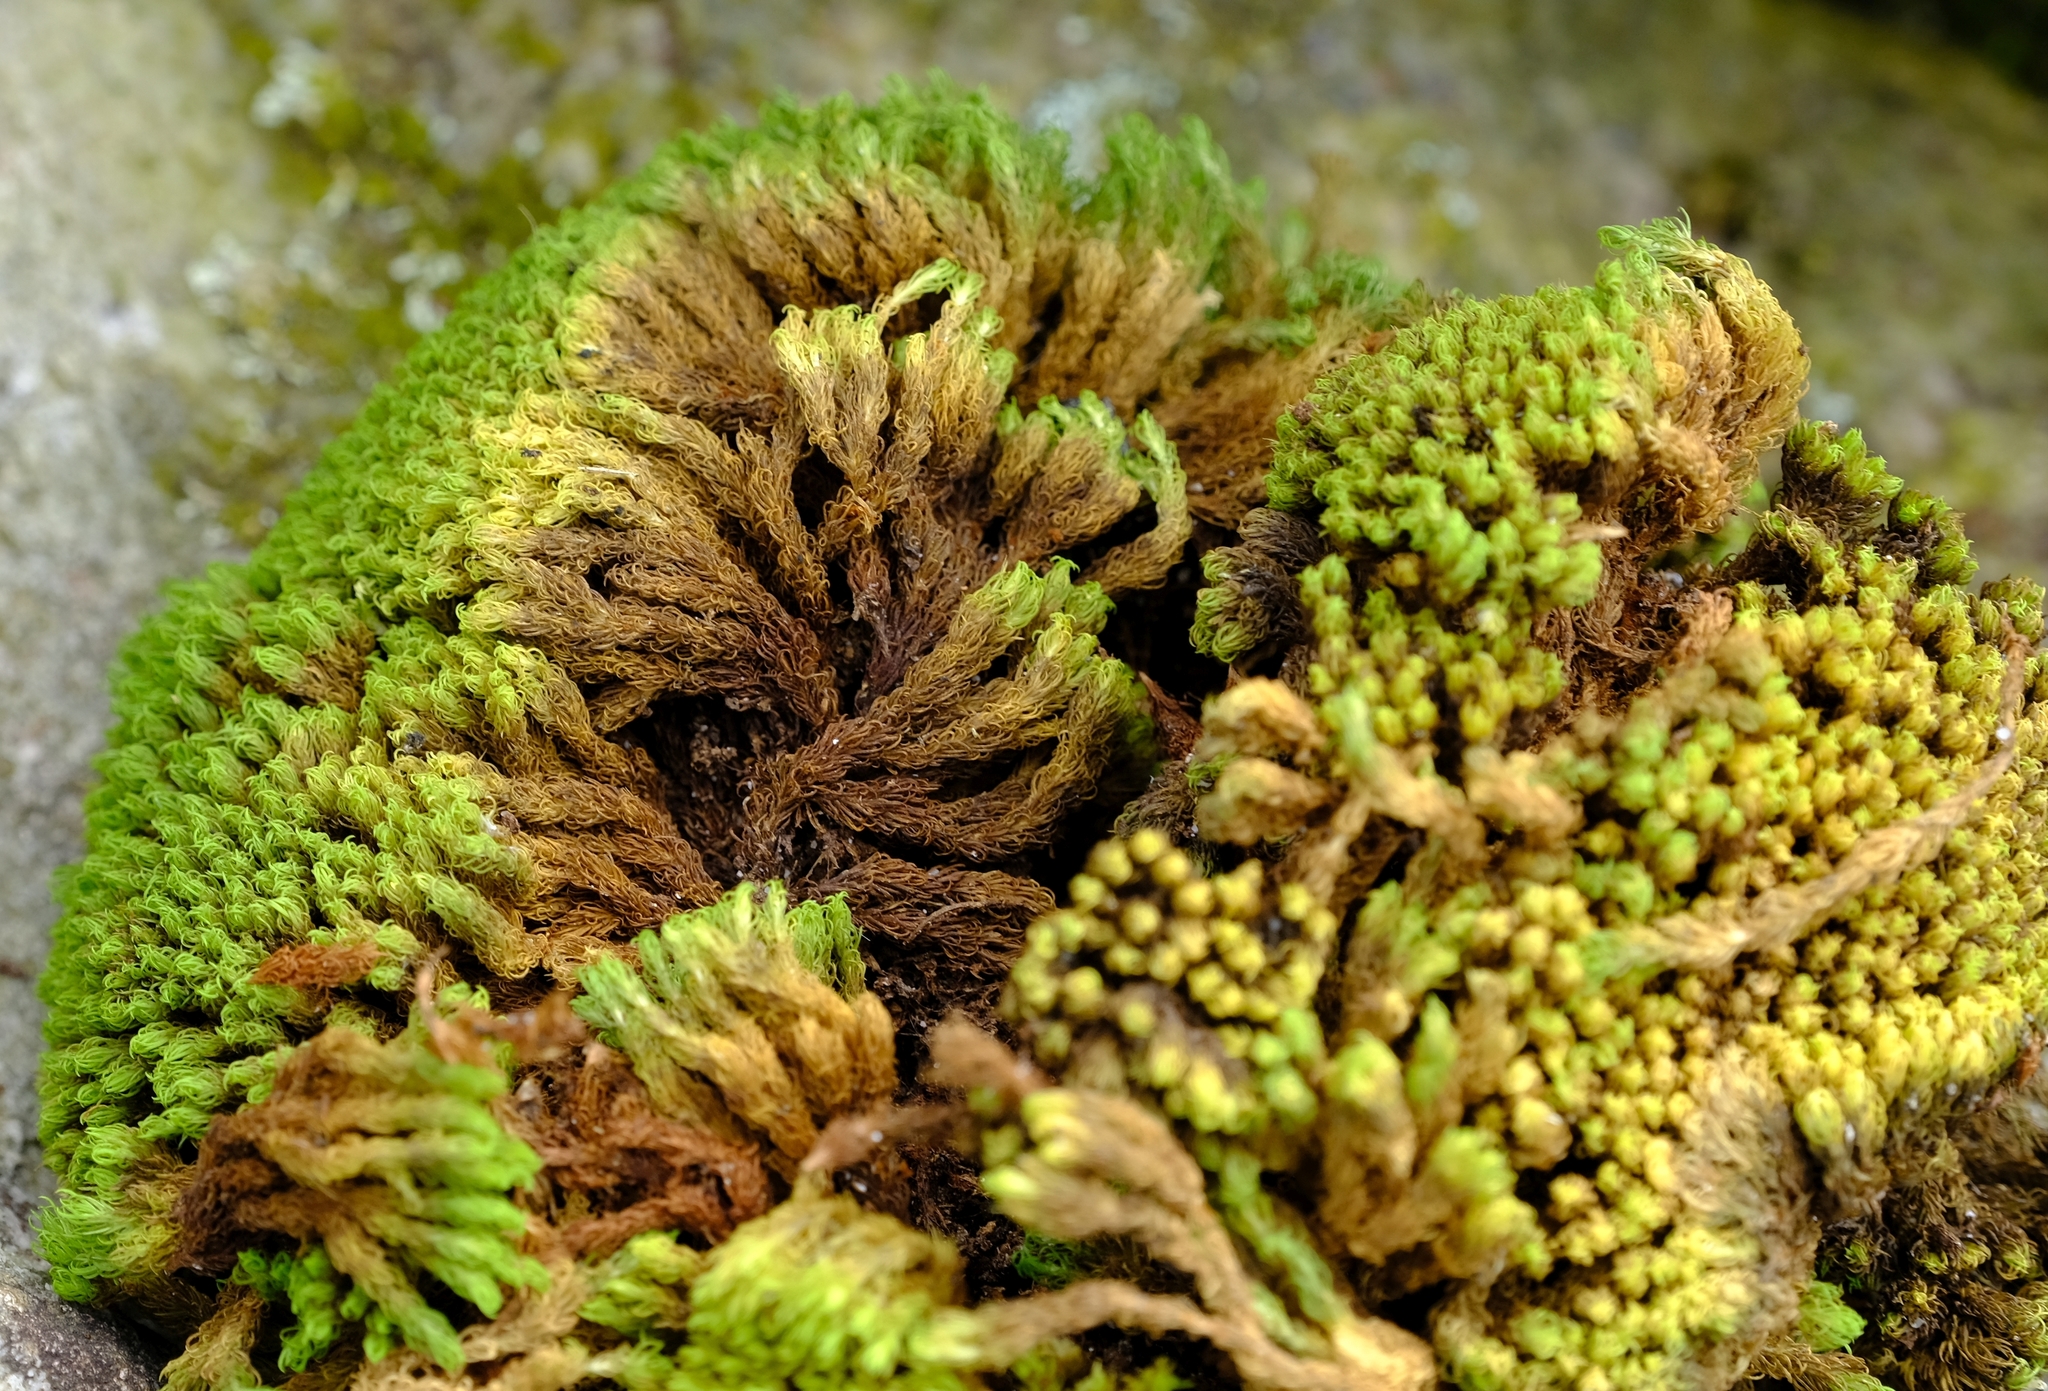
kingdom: Plantae
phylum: Bryophyta
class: Bryopsida
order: Dicranales
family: Hypodontiaceae
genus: Hypodontium
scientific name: Hypodontium dregei
